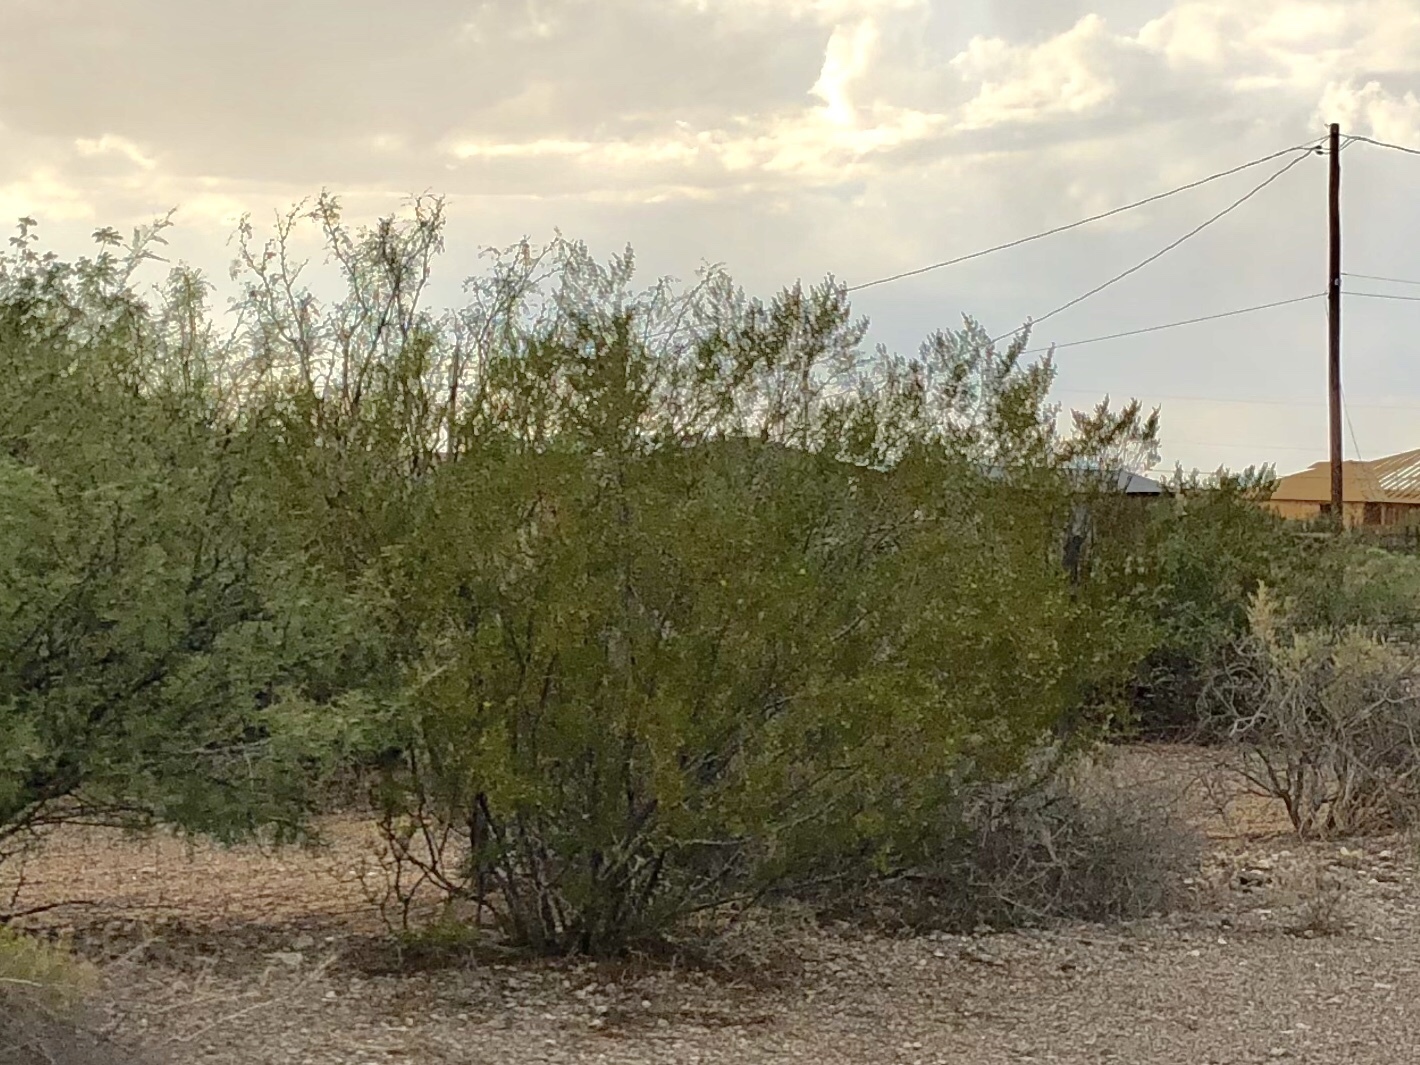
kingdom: Plantae
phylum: Tracheophyta
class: Magnoliopsida
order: Zygophyllales
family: Zygophyllaceae
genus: Larrea
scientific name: Larrea tridentata
